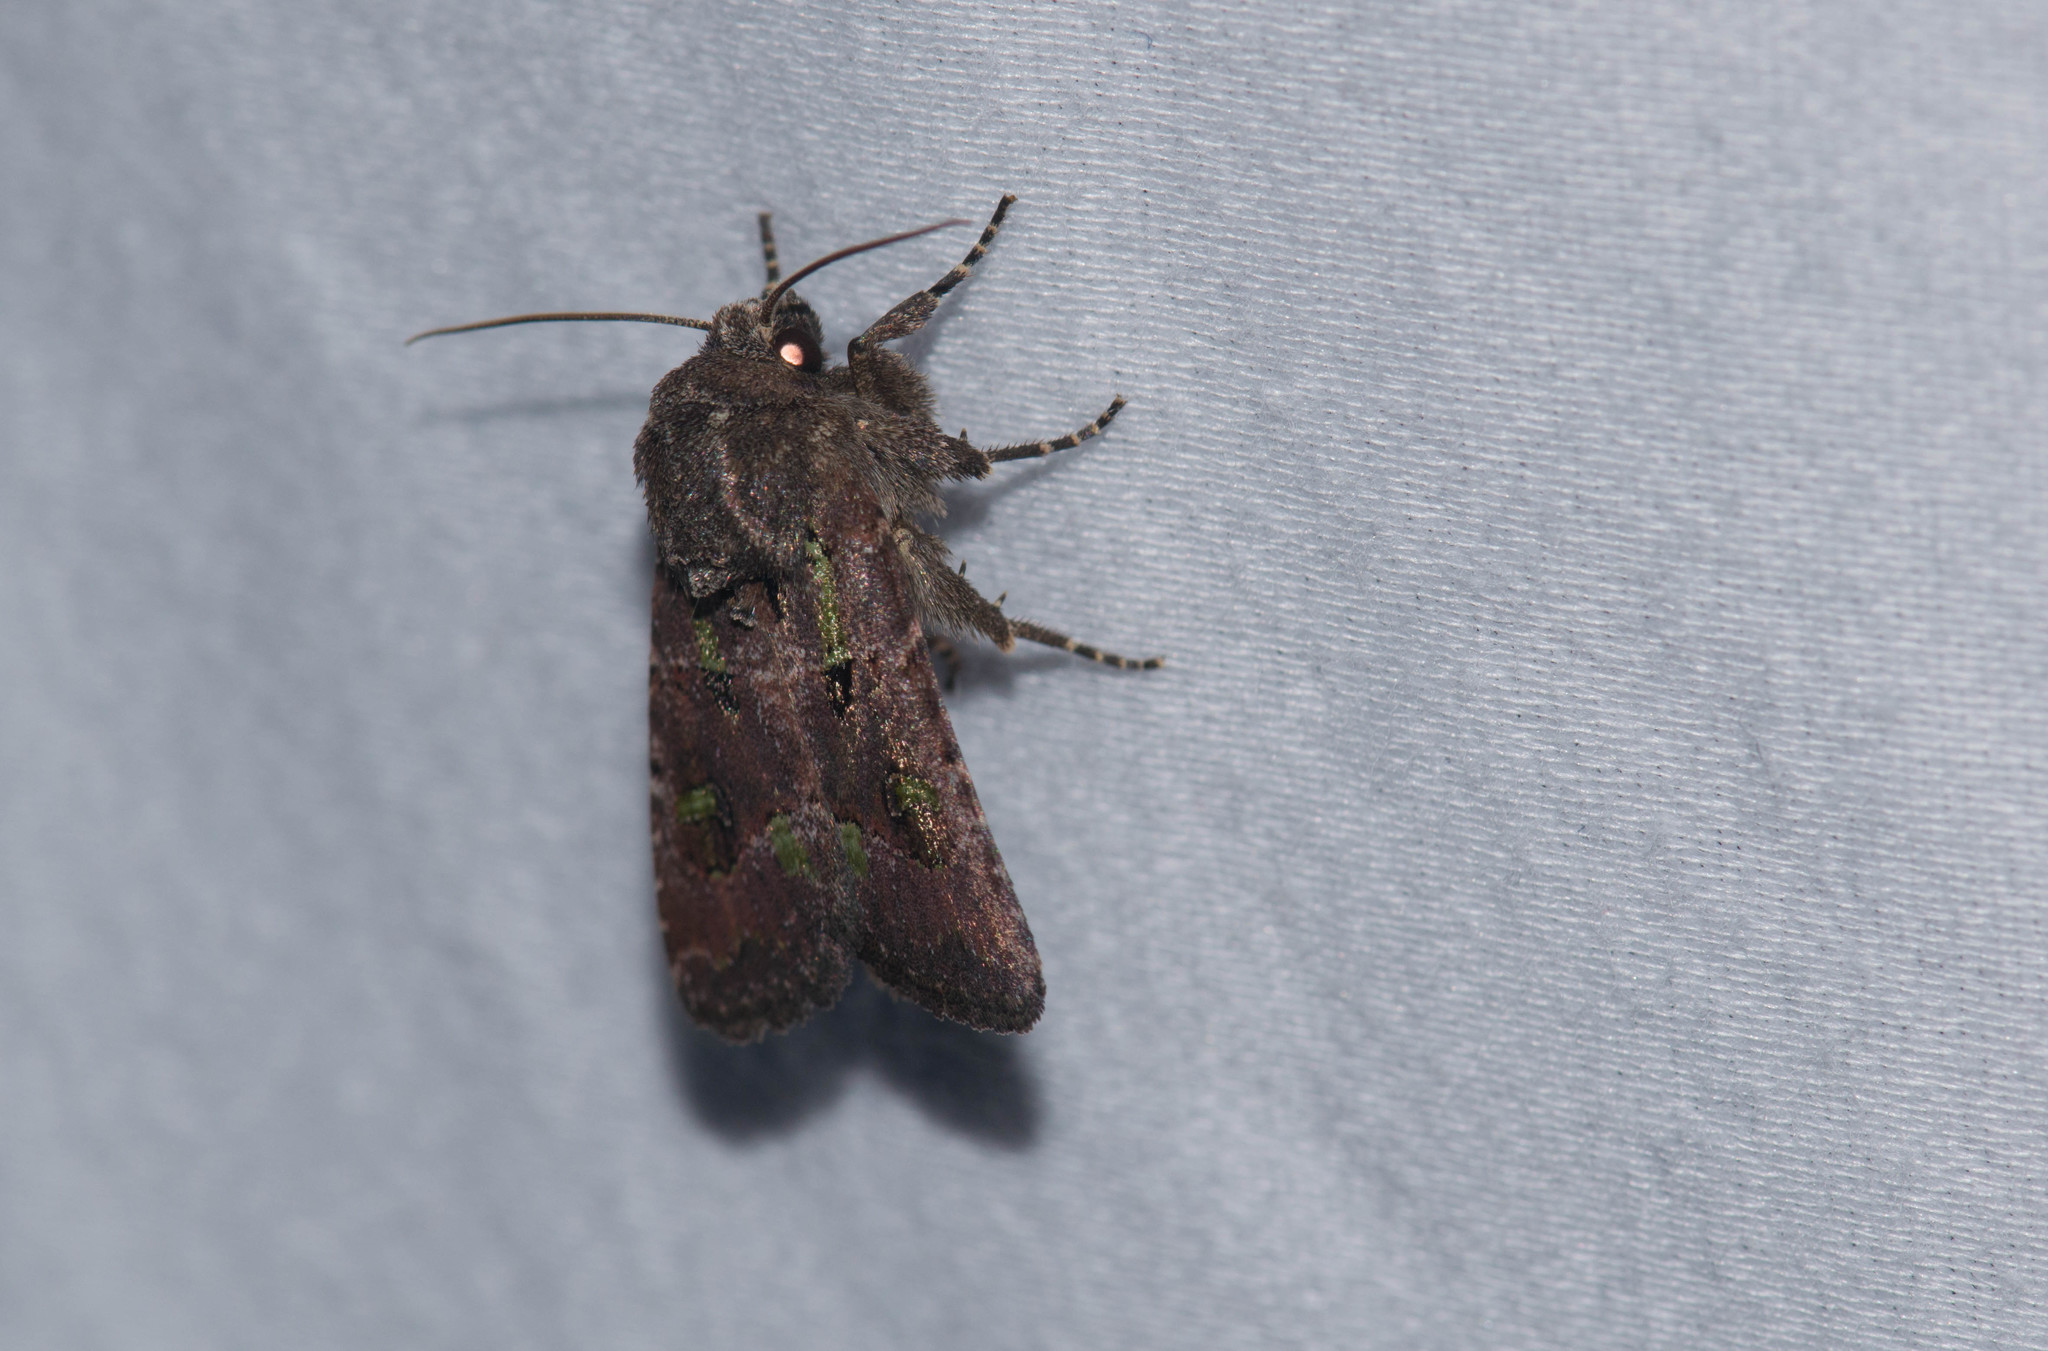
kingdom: Animalia
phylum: Arthropoda
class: Insecta
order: Lepidoptera
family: Noctuidae
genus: Lacinipolia
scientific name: Lacinipolia renigera
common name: Kidney-spotted minor
